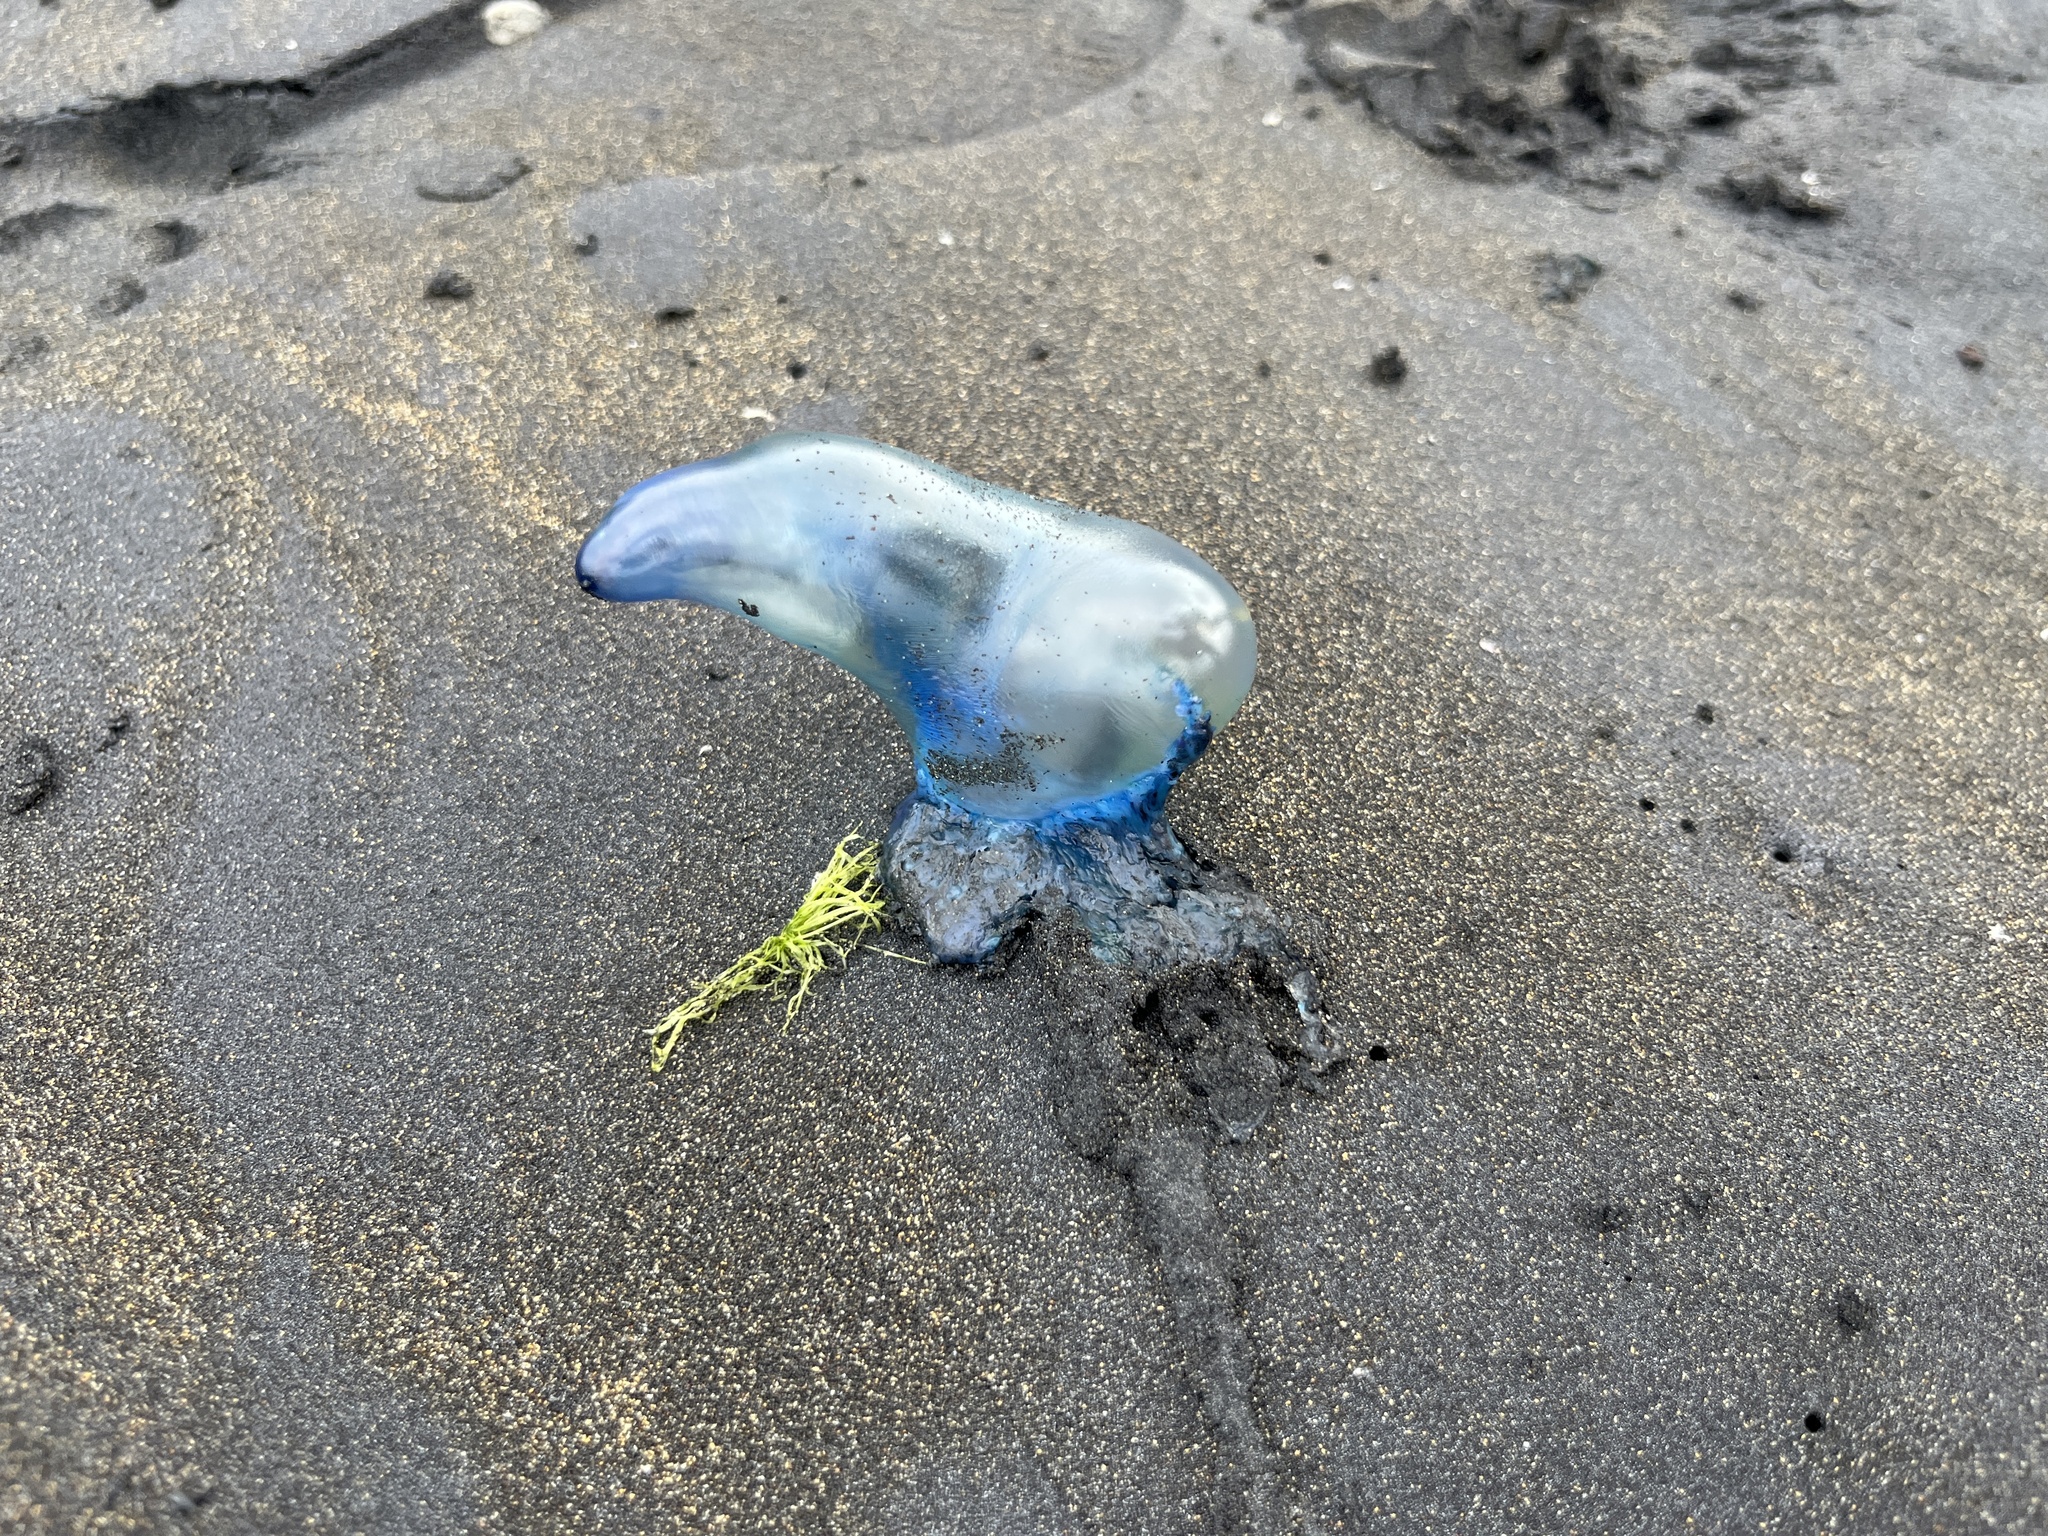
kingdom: Animalia
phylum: Cnidaria
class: Hydrozoa
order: Siphonophorae
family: Physaliidae
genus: Physalia
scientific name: Physalia physalis
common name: Portuguese man-of-war
